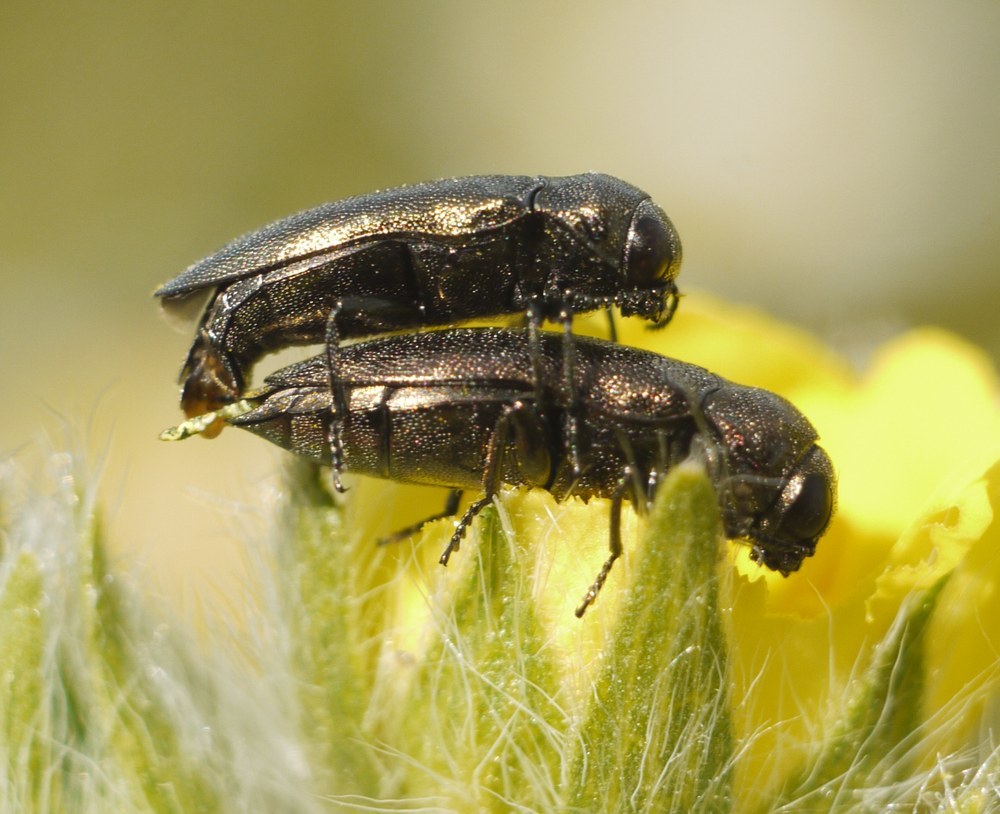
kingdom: Animalia
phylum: Arthropoda
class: Insecta
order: Coleoptera
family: Buprestidae
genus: Coraebus
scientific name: Coraebus elatus
